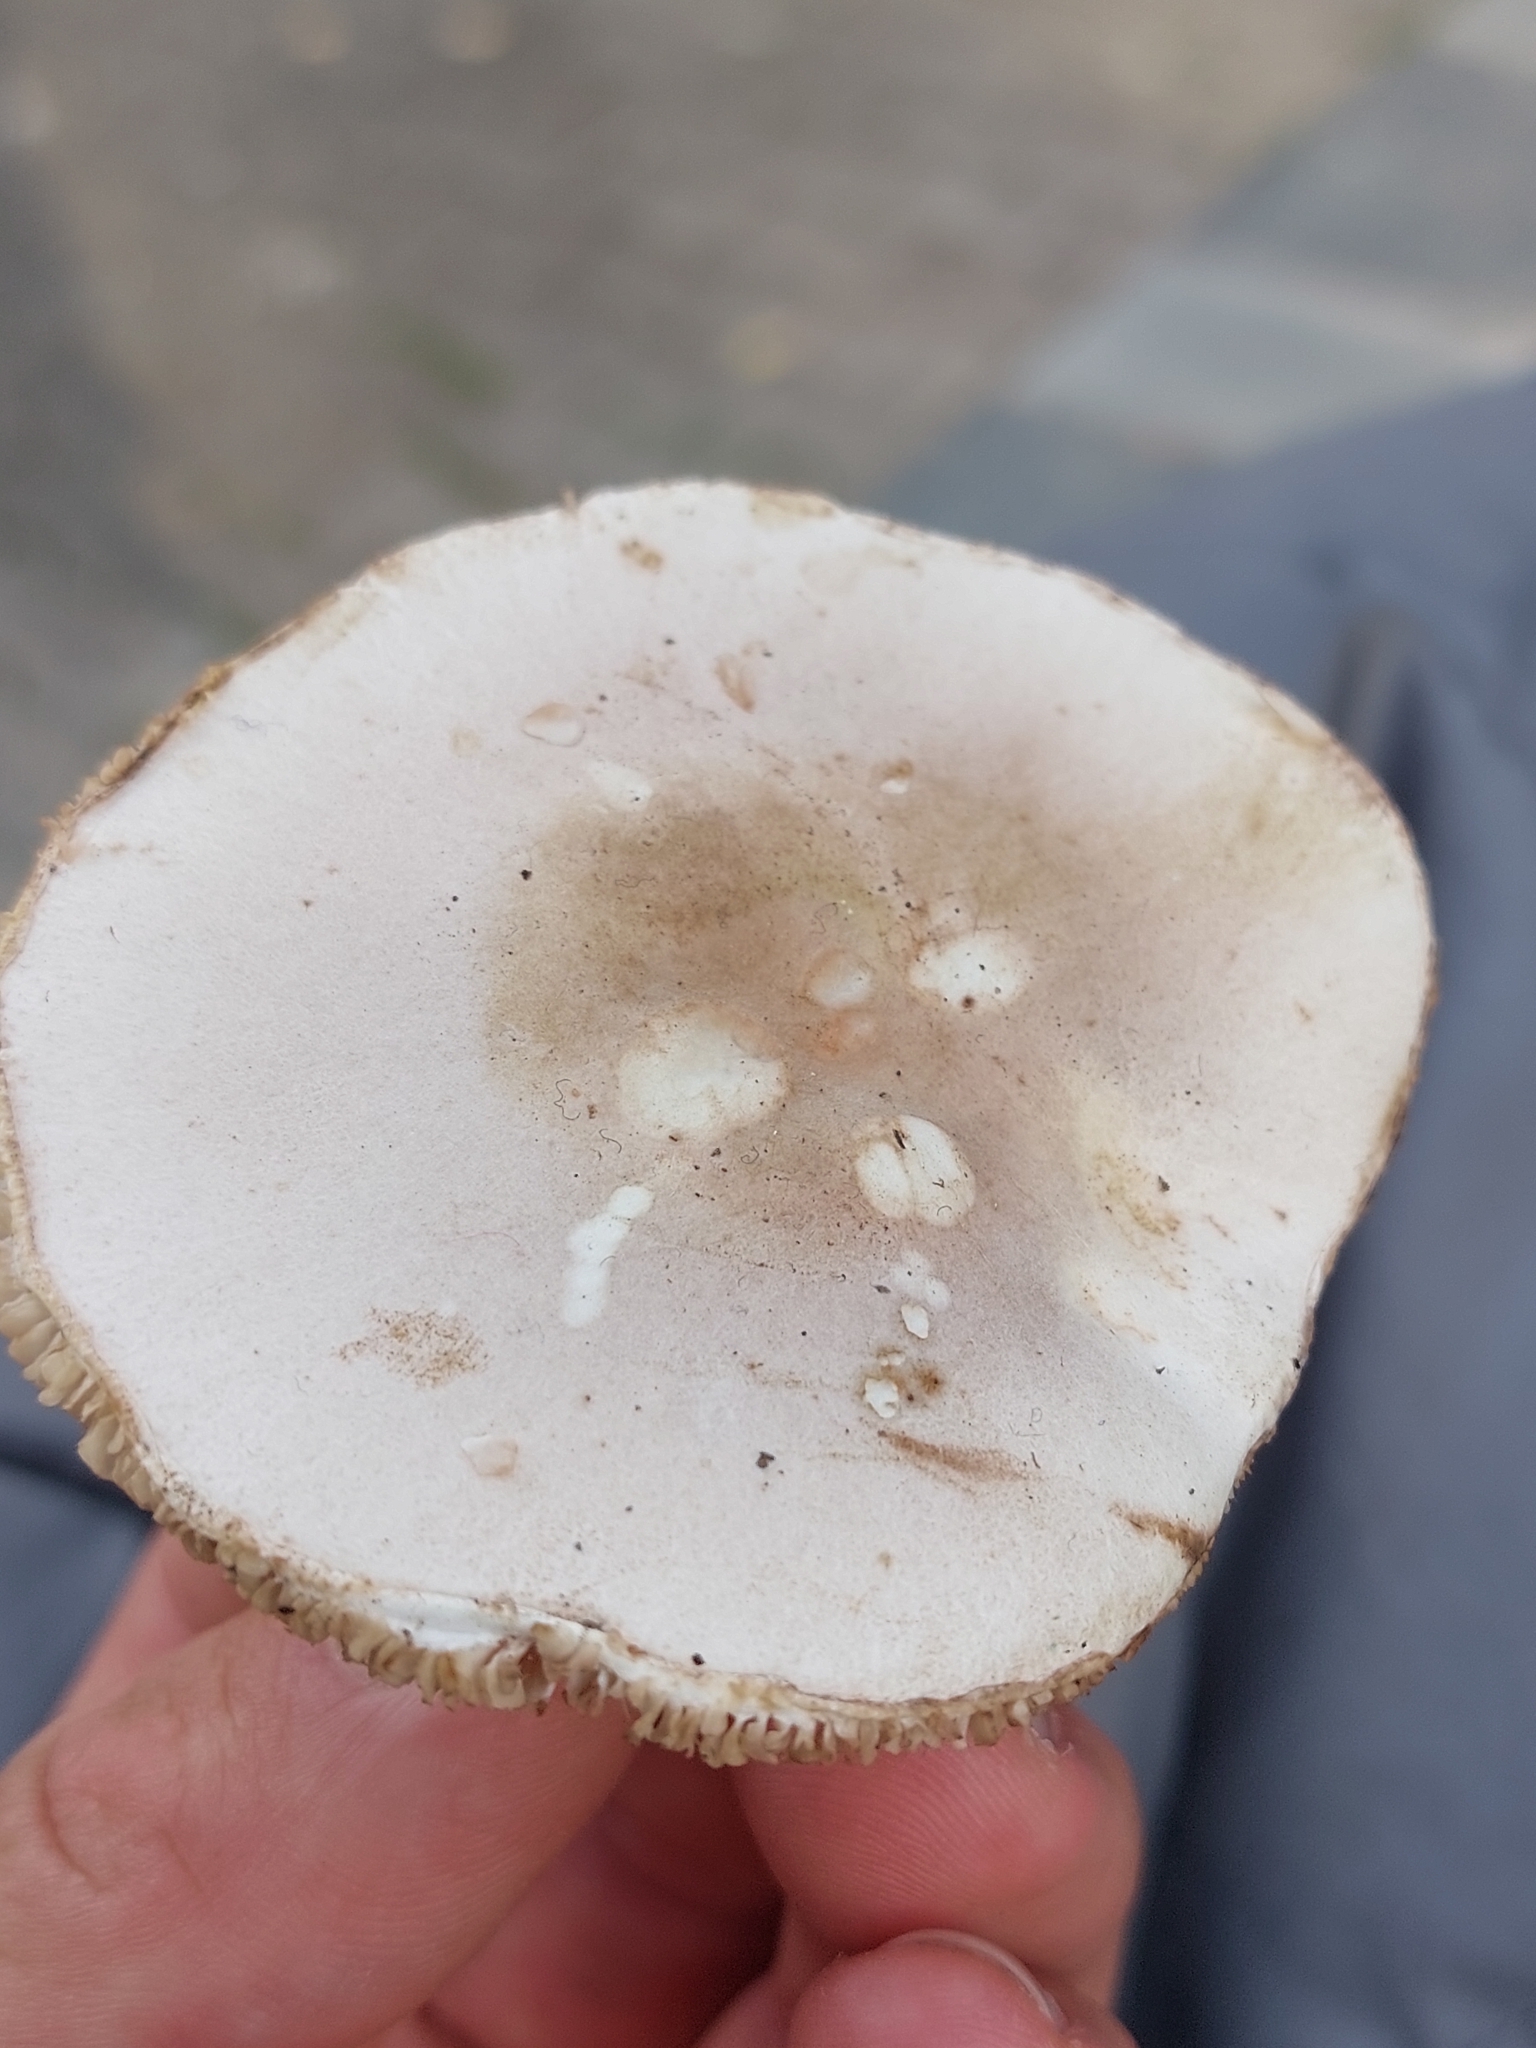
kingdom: Fungi
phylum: Basidiomycota
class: Agaricomycetes
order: Agaricales
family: Agaricaceae
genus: Leucoagaricus
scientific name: Leucoagaricus leucothites
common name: White dapperling
